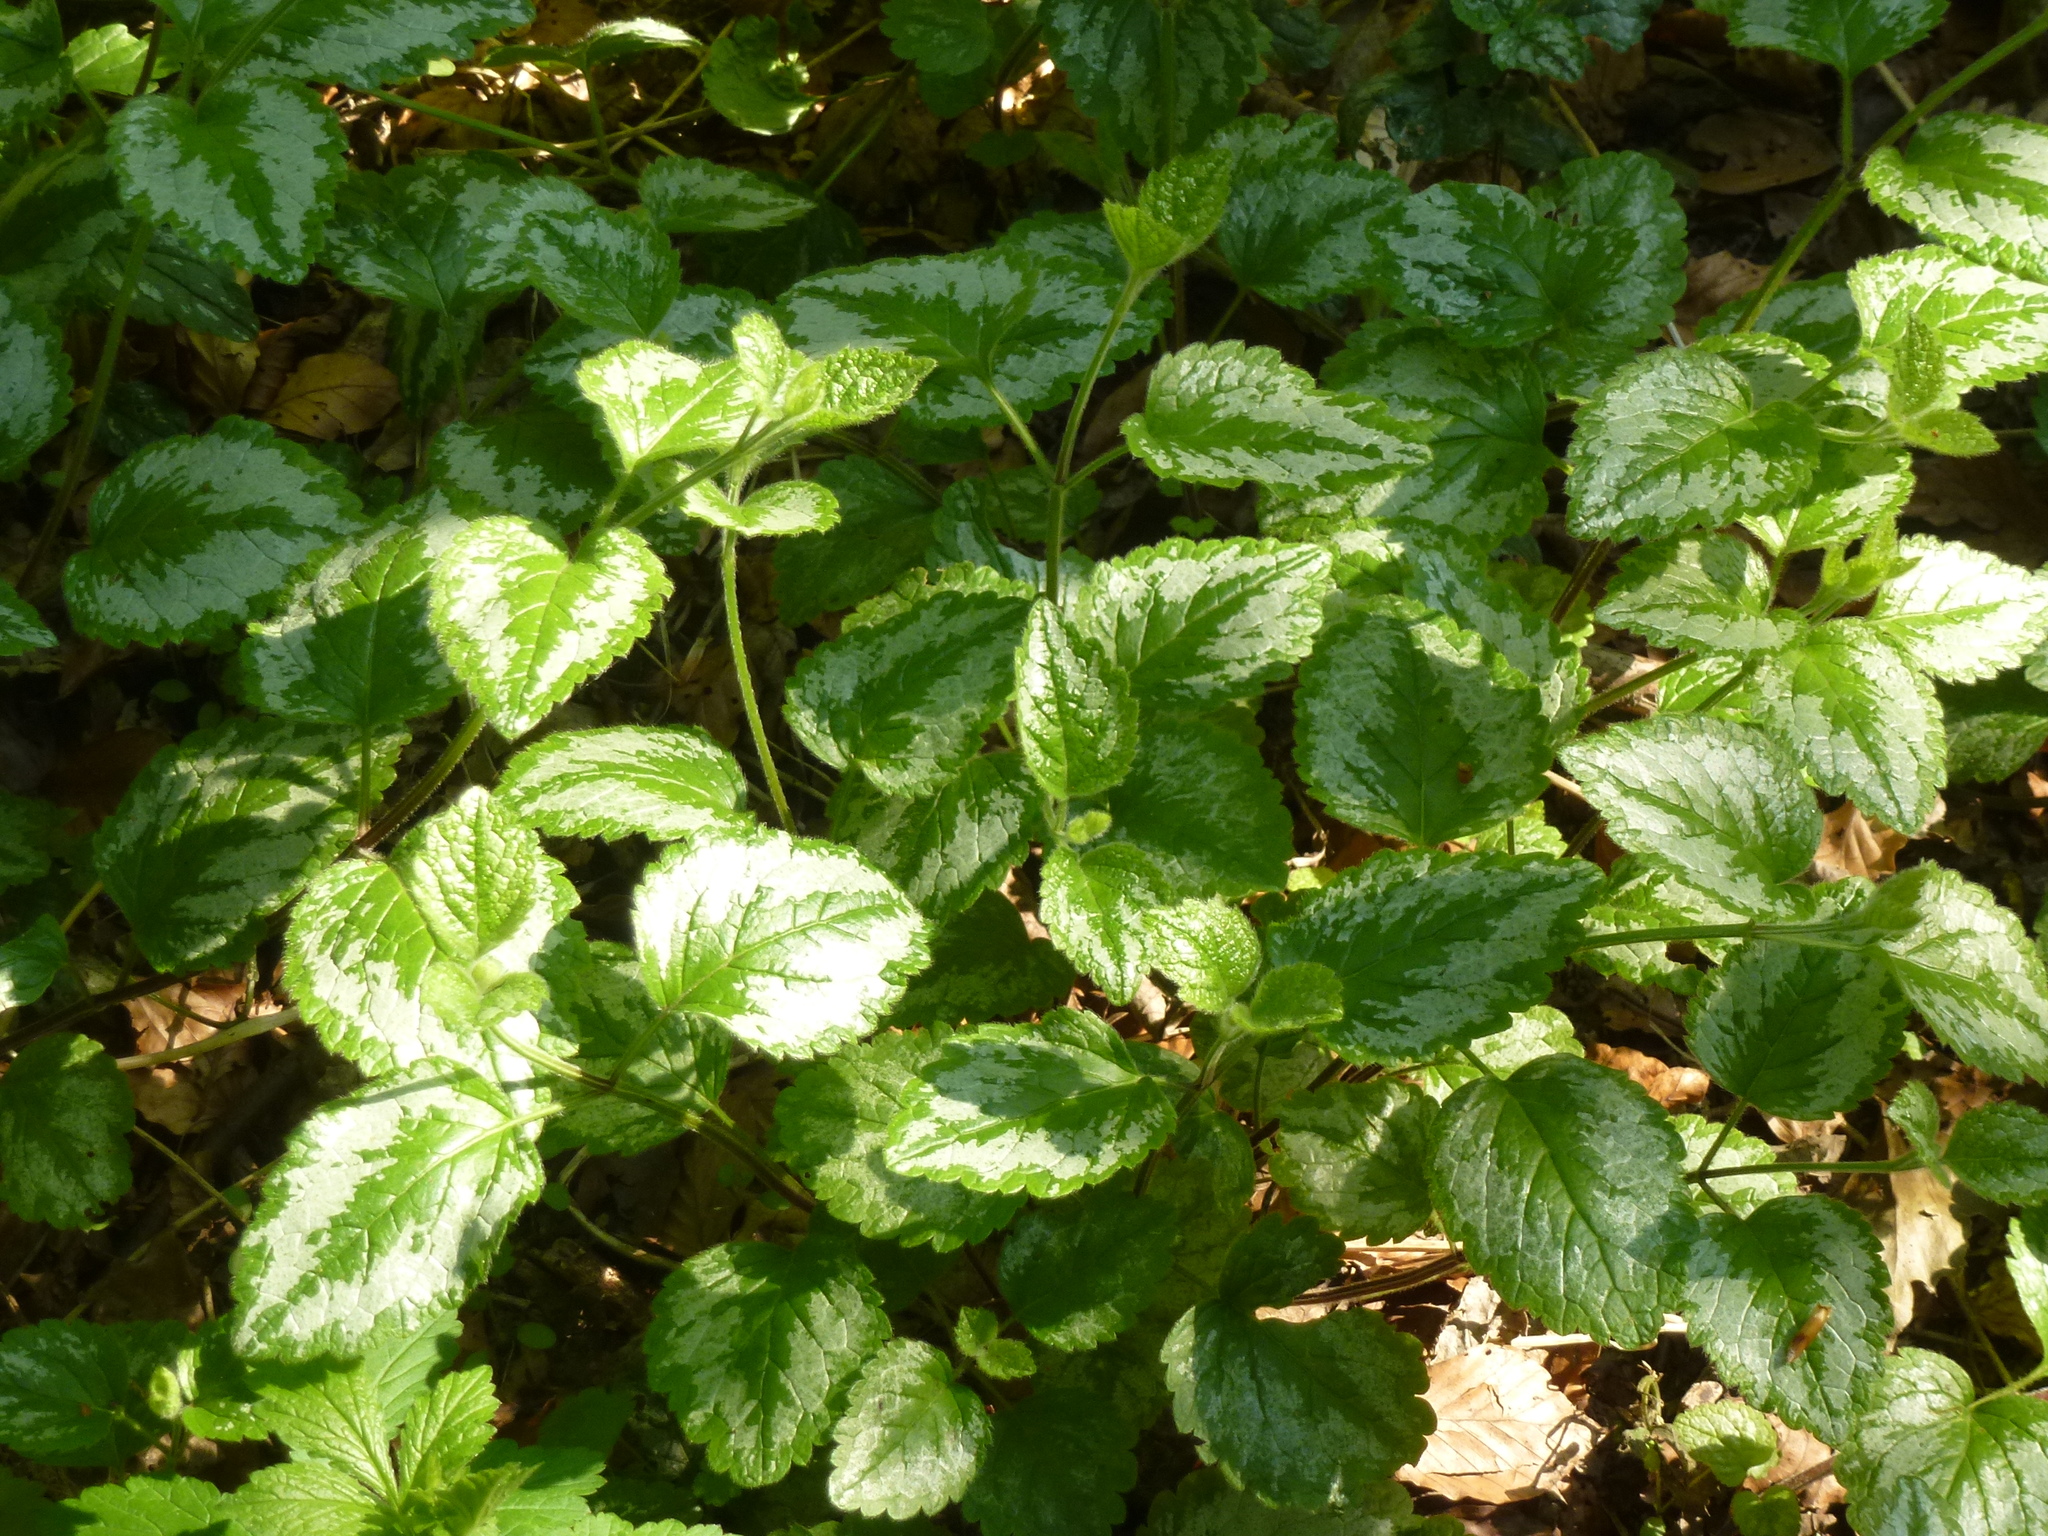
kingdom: Plantae
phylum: Tracheophyta
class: Magnoliopsida
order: Lamiales
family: Lamiaceae
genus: Lamium
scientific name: Lamium galeobdolon
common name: Yellow archangel
